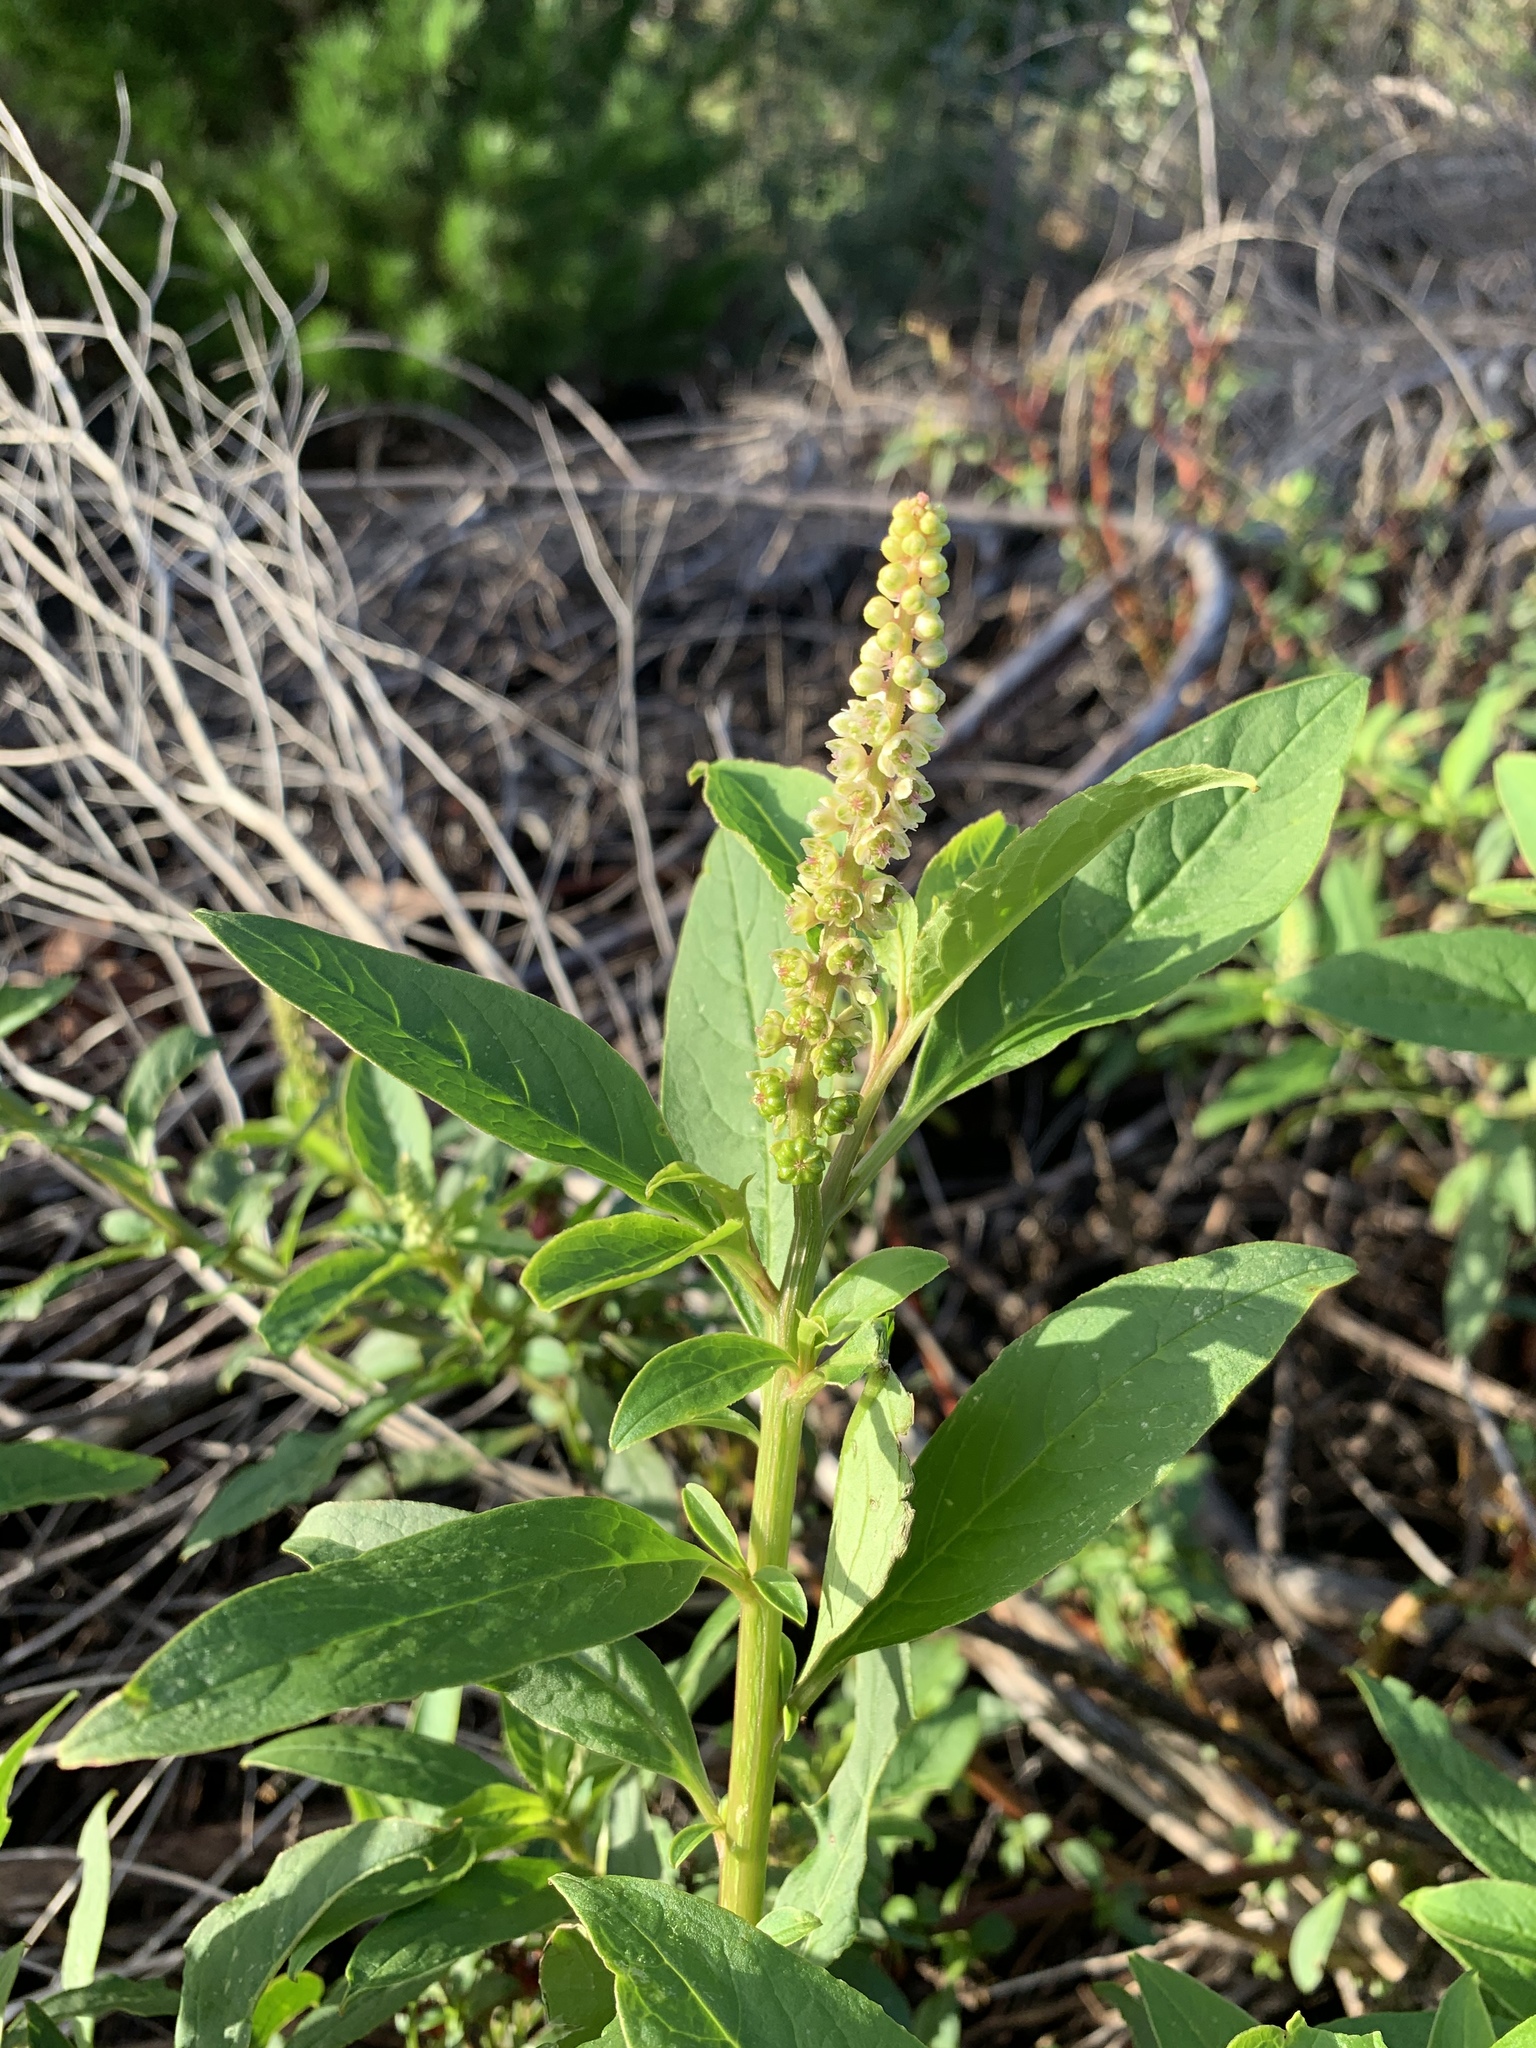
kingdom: Plantae
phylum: Tracheophyta
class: Magnoliopsida
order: Caryophyllales
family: Phytolaccaceae
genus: Phytolacca
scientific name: Phytolacca icosandra
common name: Button pokeweed
